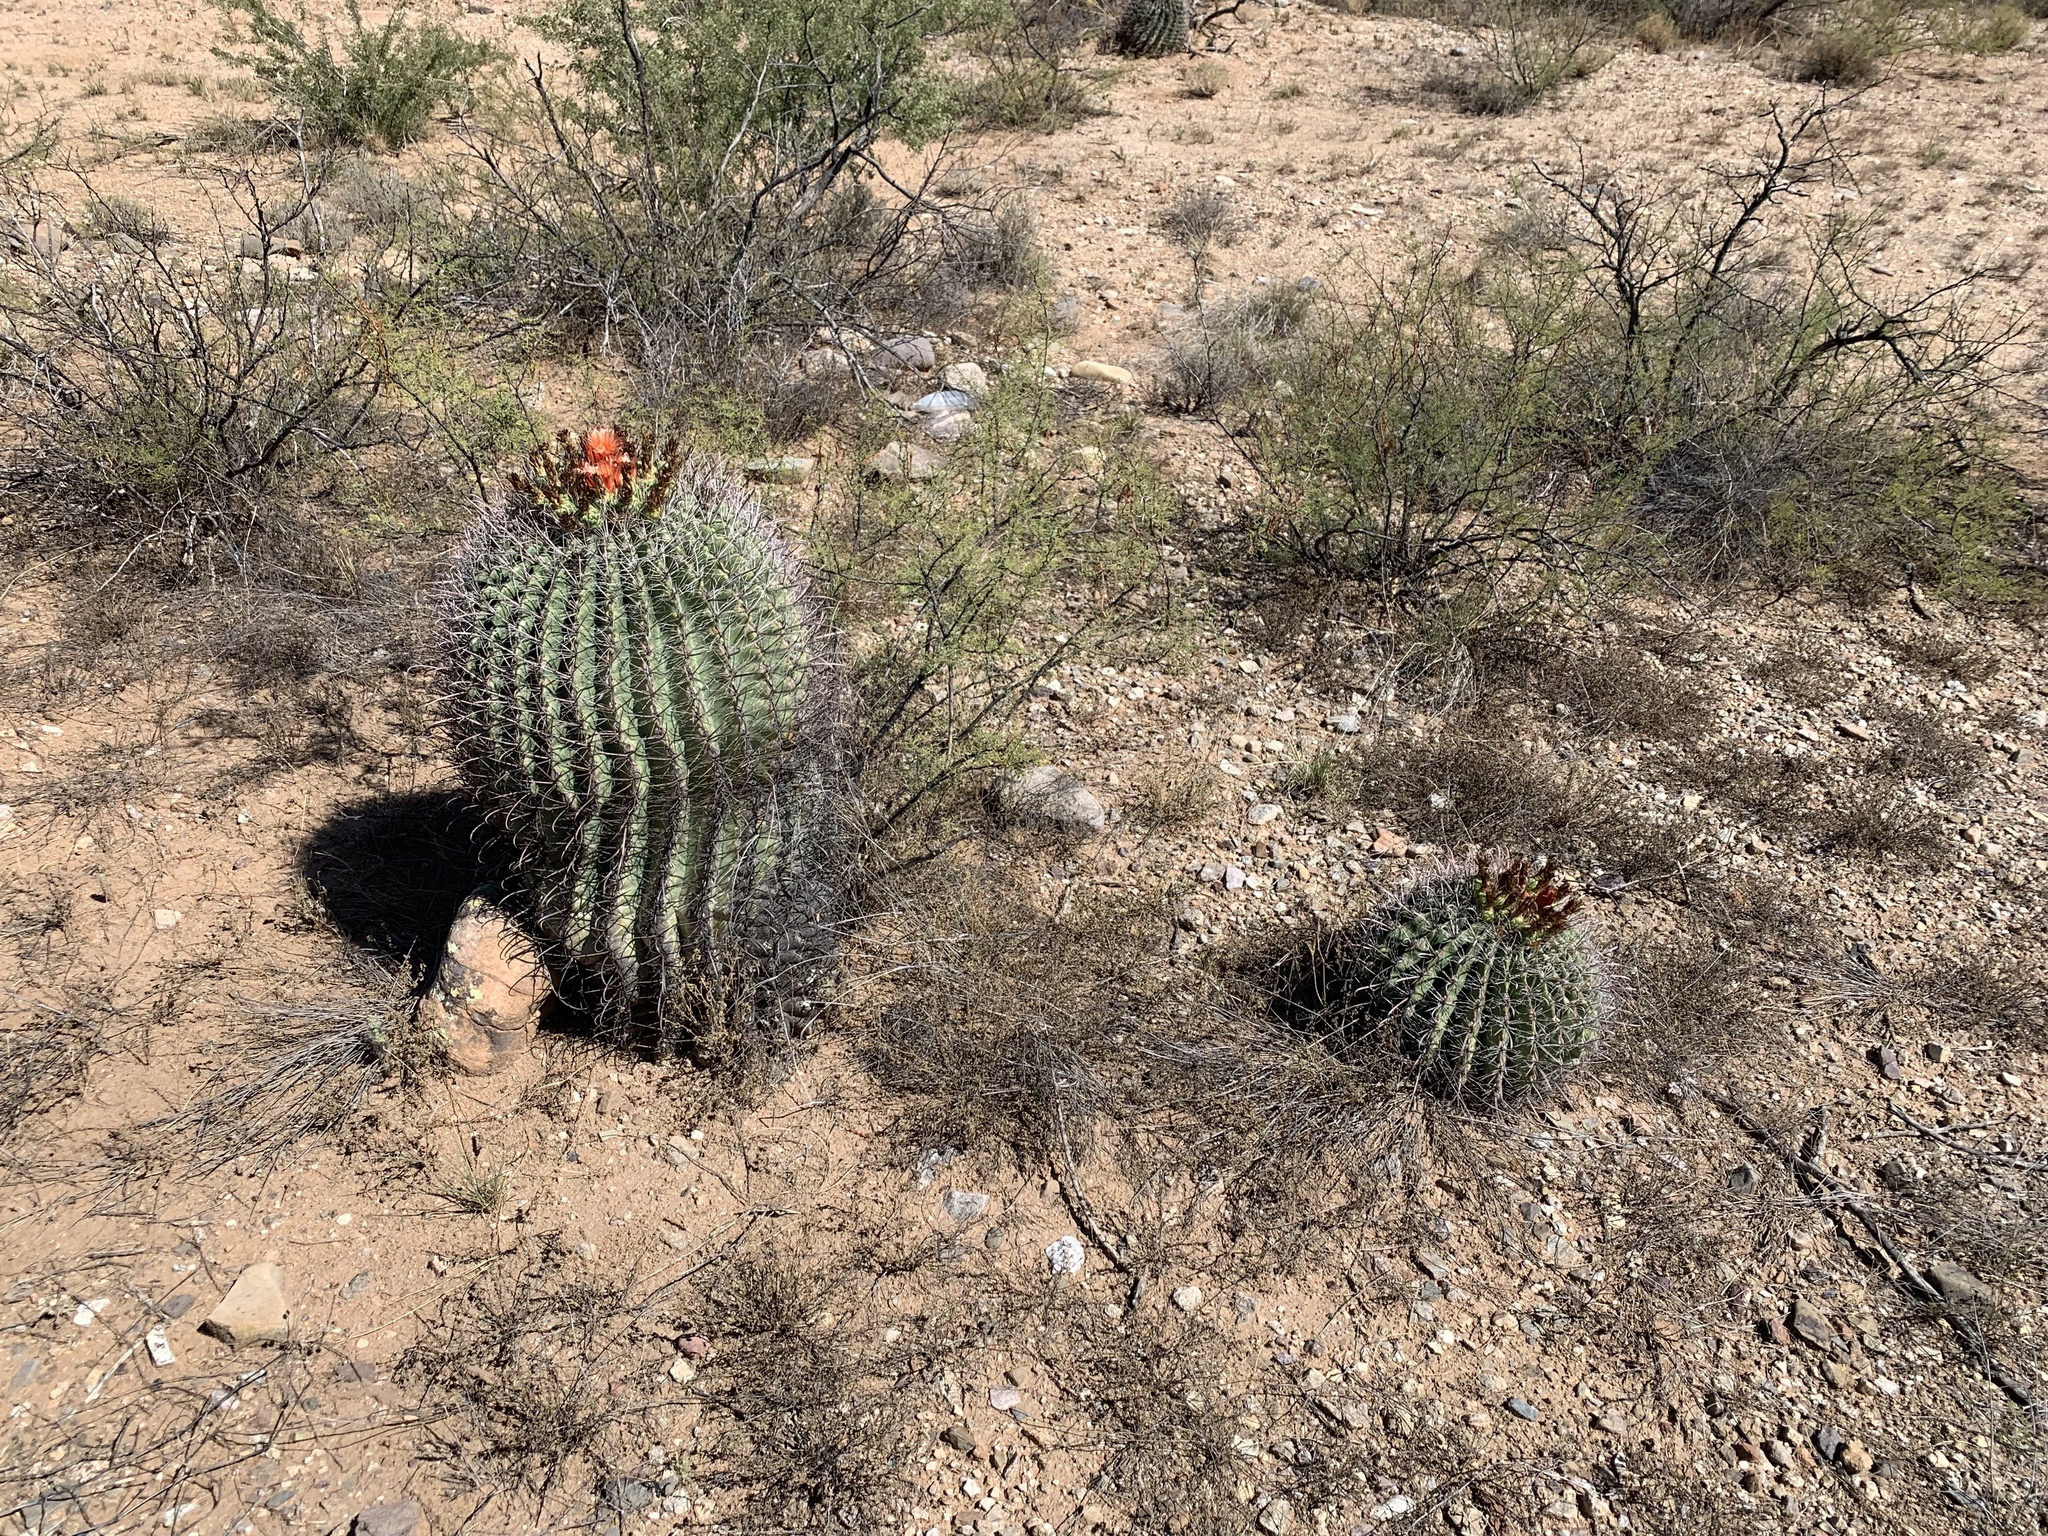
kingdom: Plantae
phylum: Tracheophyta
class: Magnoliopsida
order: Caryophyllales
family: Cactaceae
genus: Ferocactus
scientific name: Ferocactus wislizeni
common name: Candy barrel cactus
